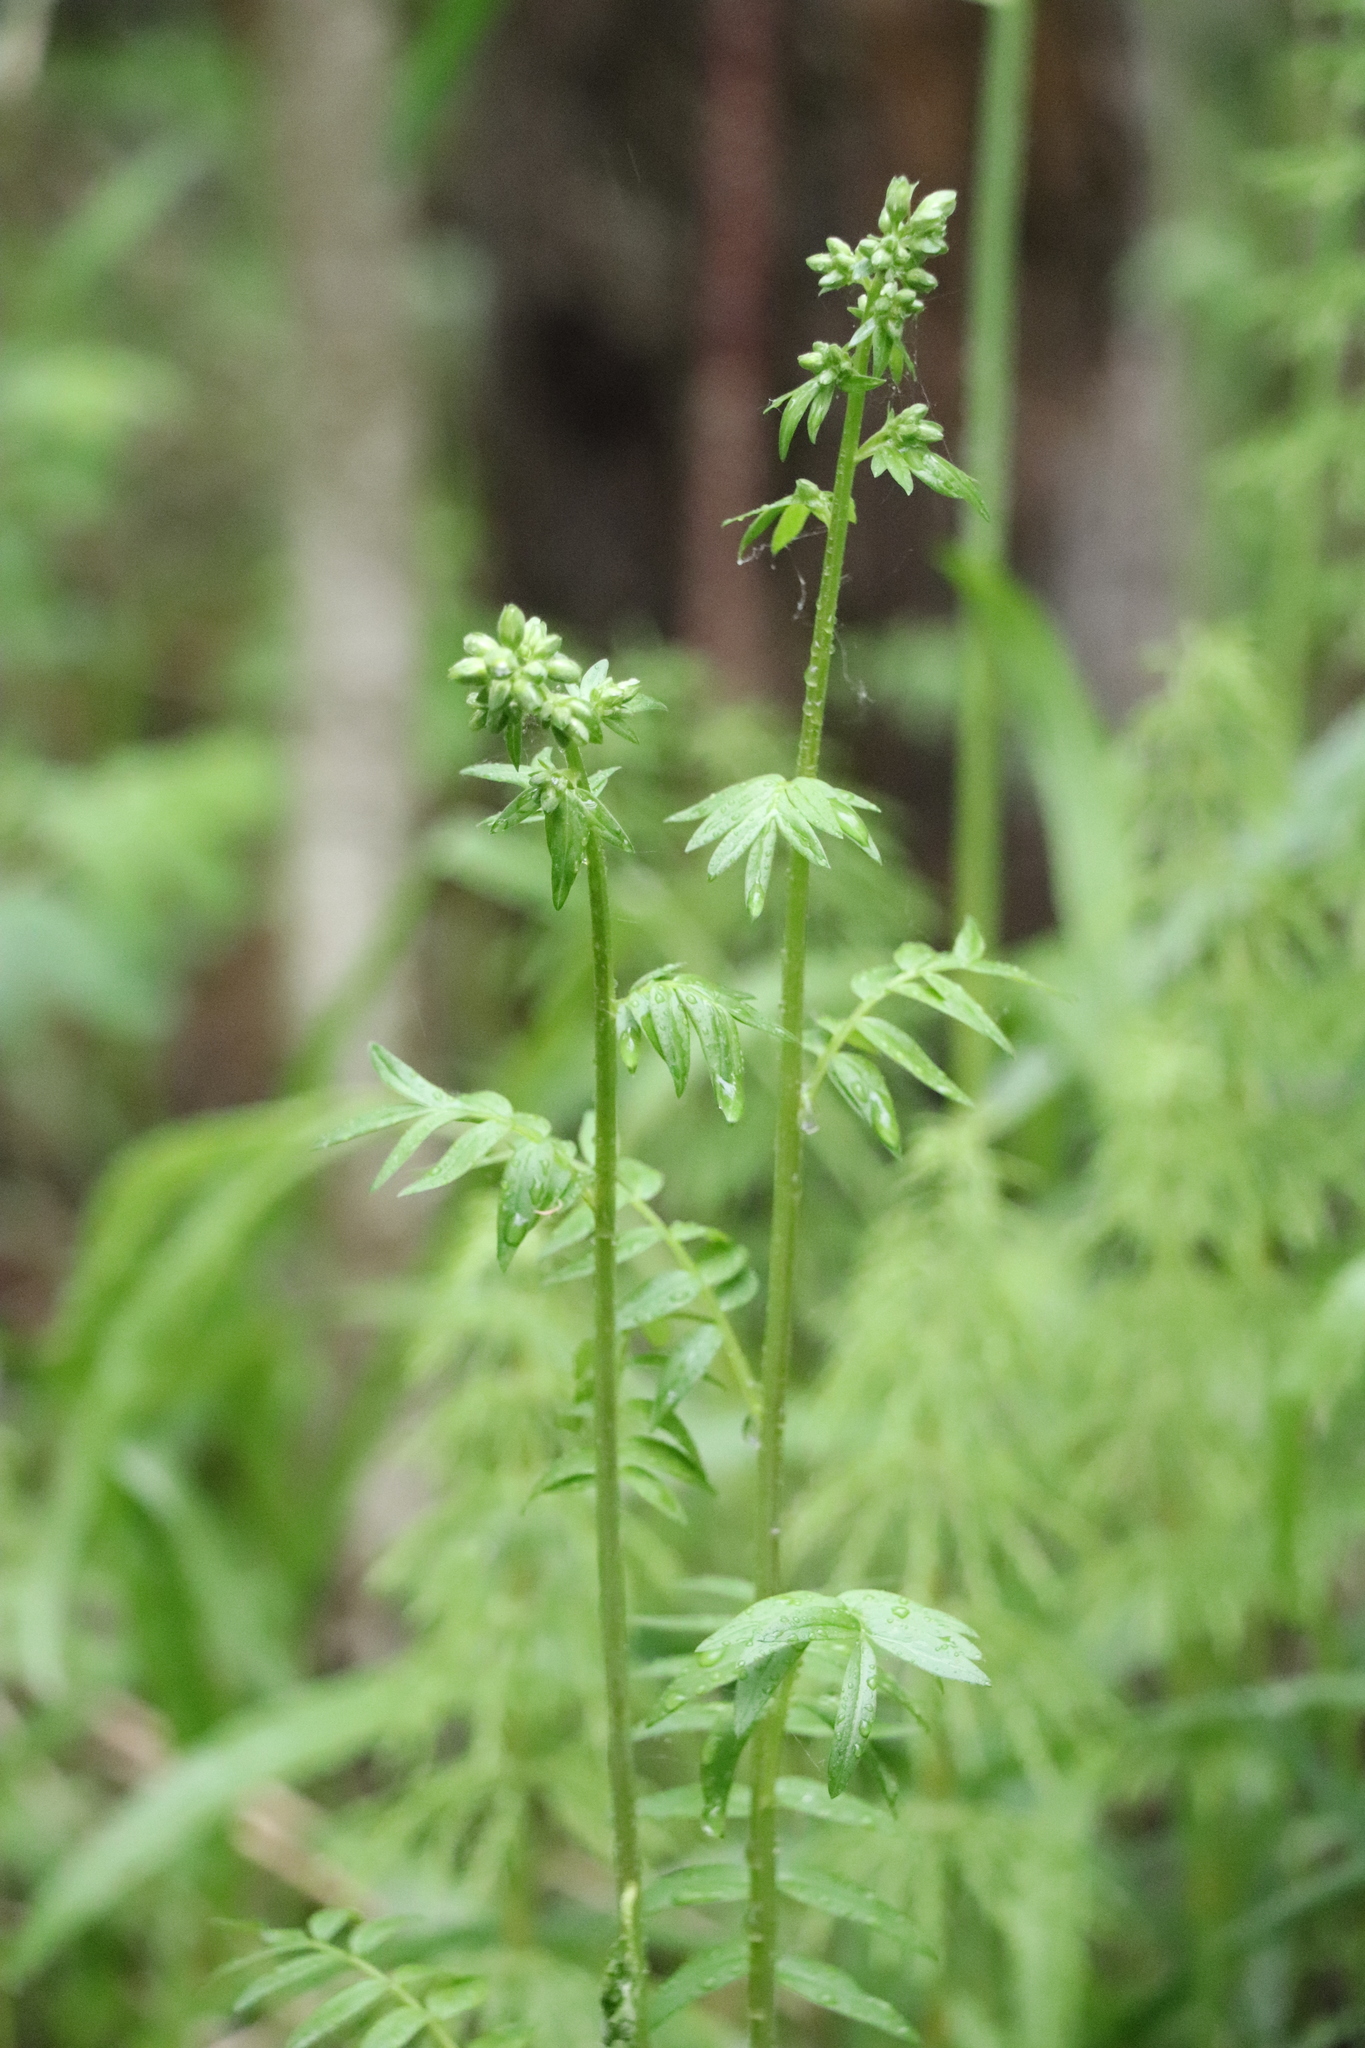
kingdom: Plantae
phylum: Tracheophyta
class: Magnoliopsida
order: Ericales
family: Polemoniaceae
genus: Polemonium
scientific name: Polemonium caeruleum
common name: Jacob's-ladder
